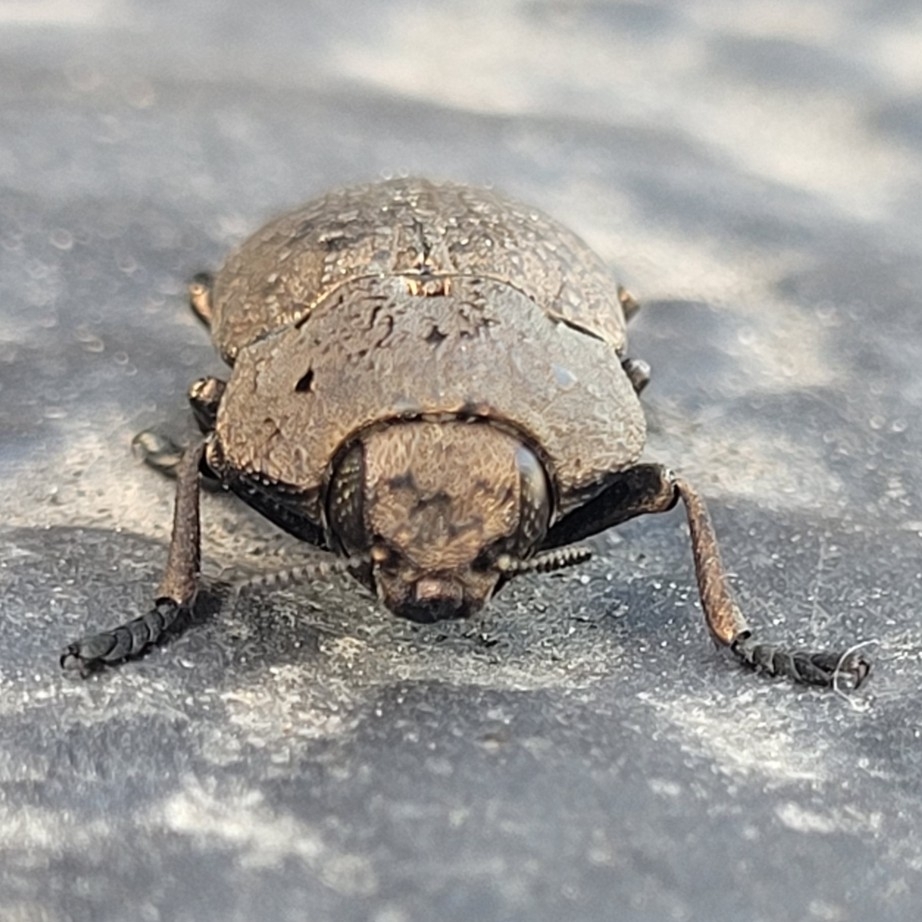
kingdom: Animalia
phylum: Arthropoda
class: Insecta
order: Coleoptera
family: Buprestidae
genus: Capnodis
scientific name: Capnodis tenebricosa
